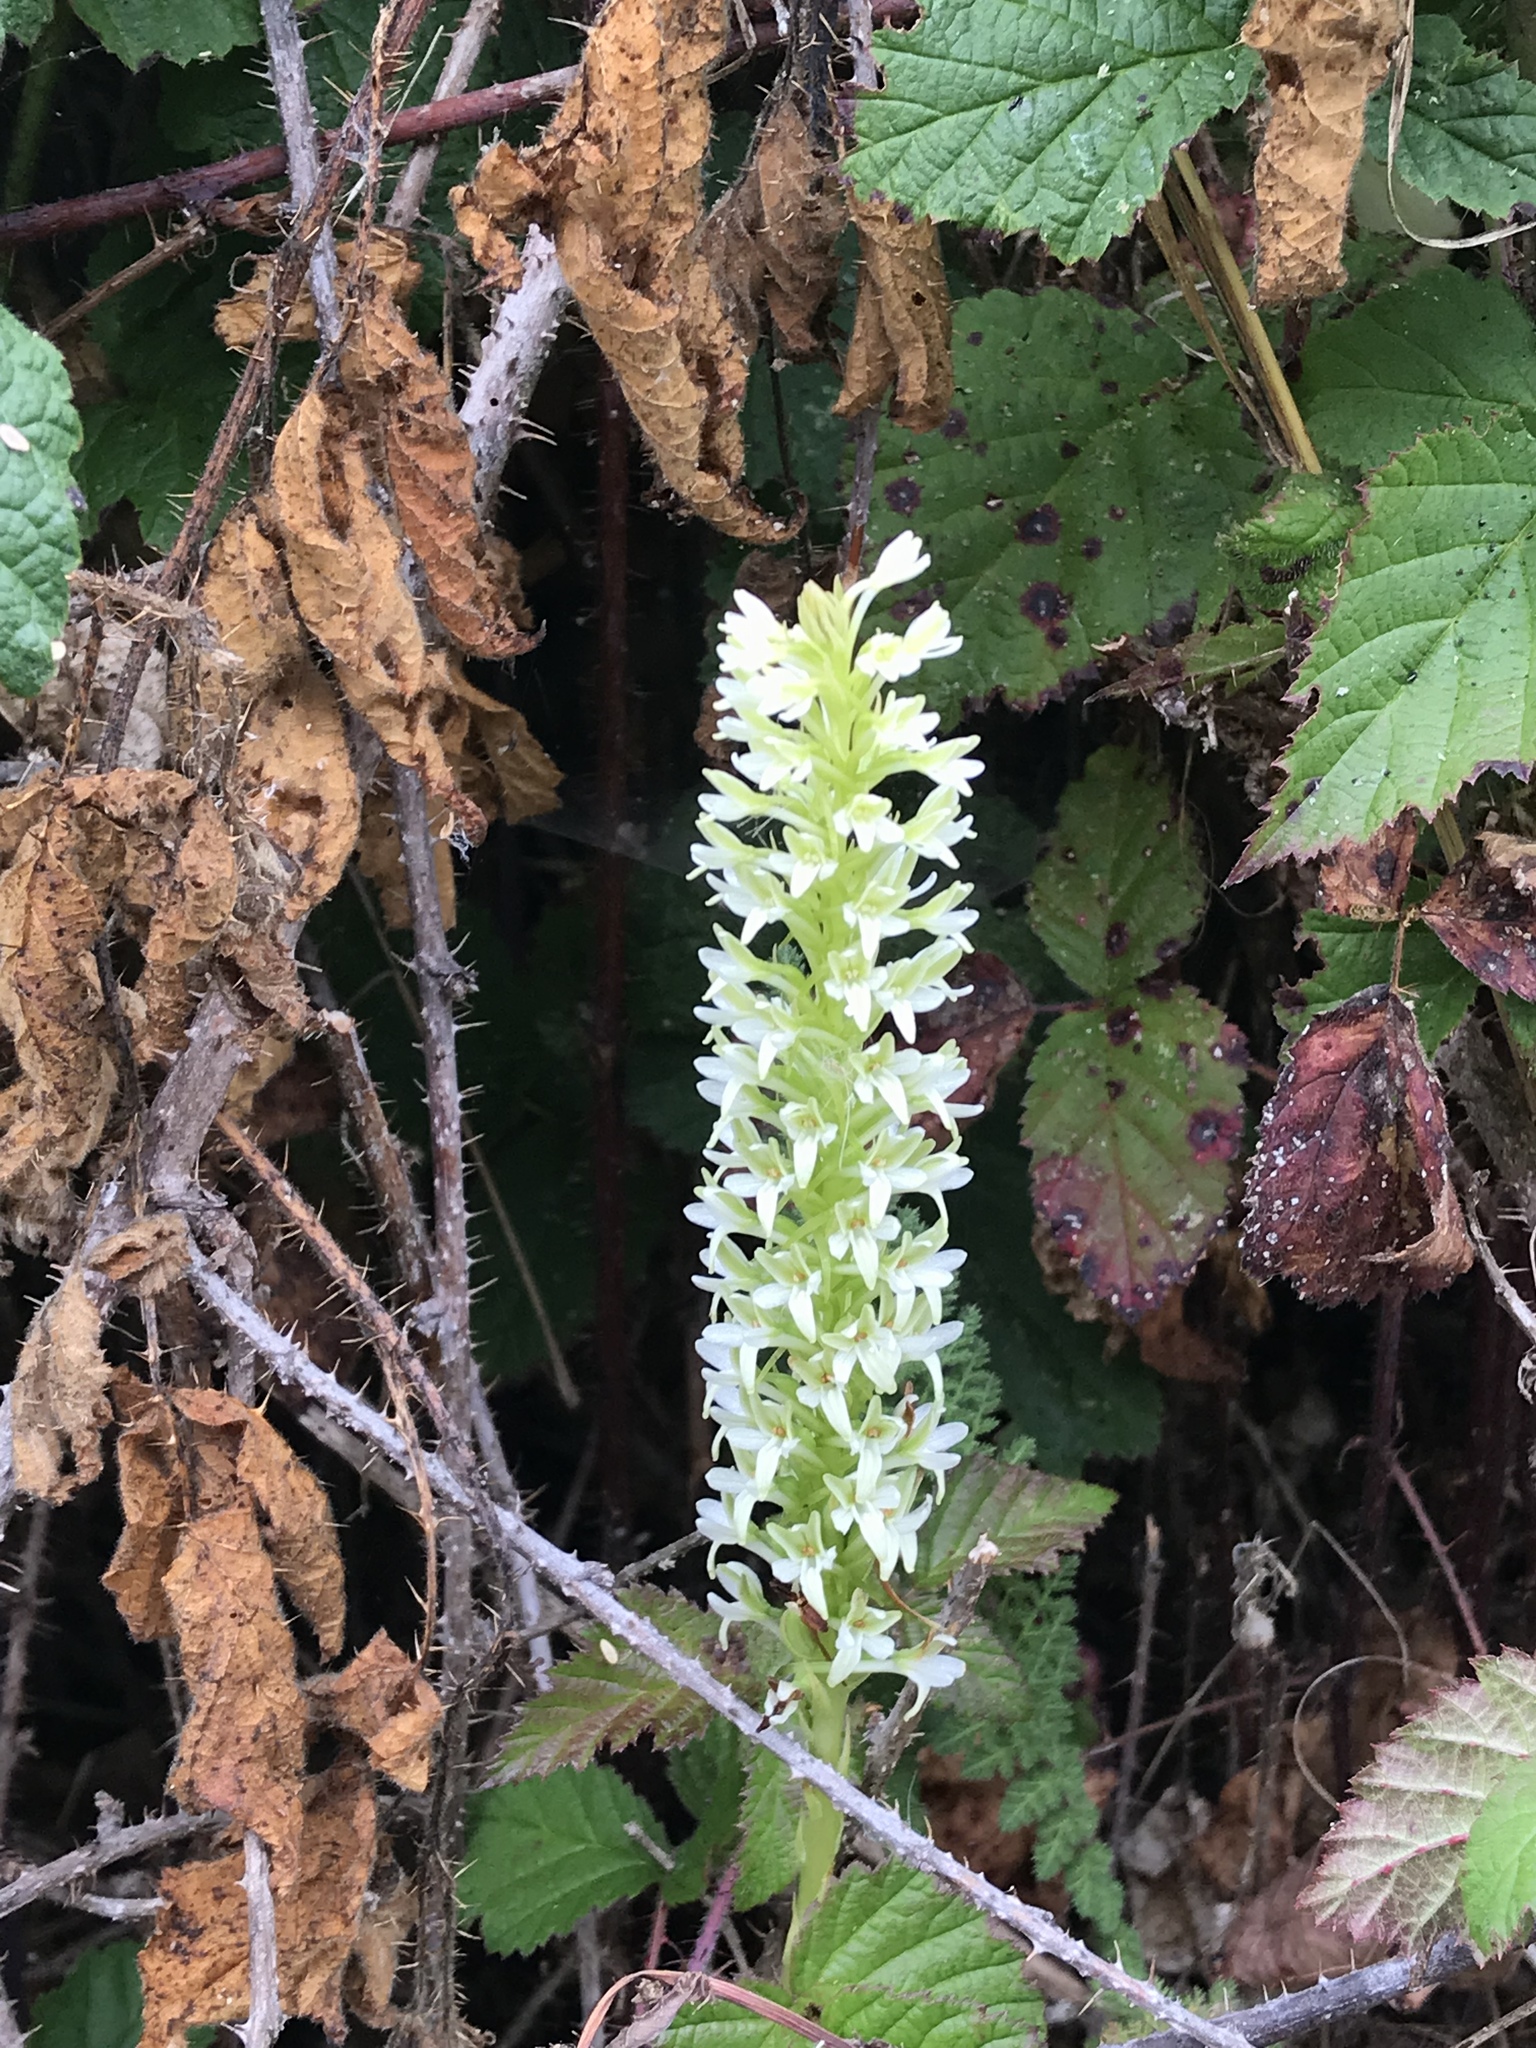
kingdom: Plantae
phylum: Tracheophyta
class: Liliopsida
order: Asparagales
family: Orchidaceae
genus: Platanthera
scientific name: Platanthera elegans
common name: Coast piperia
